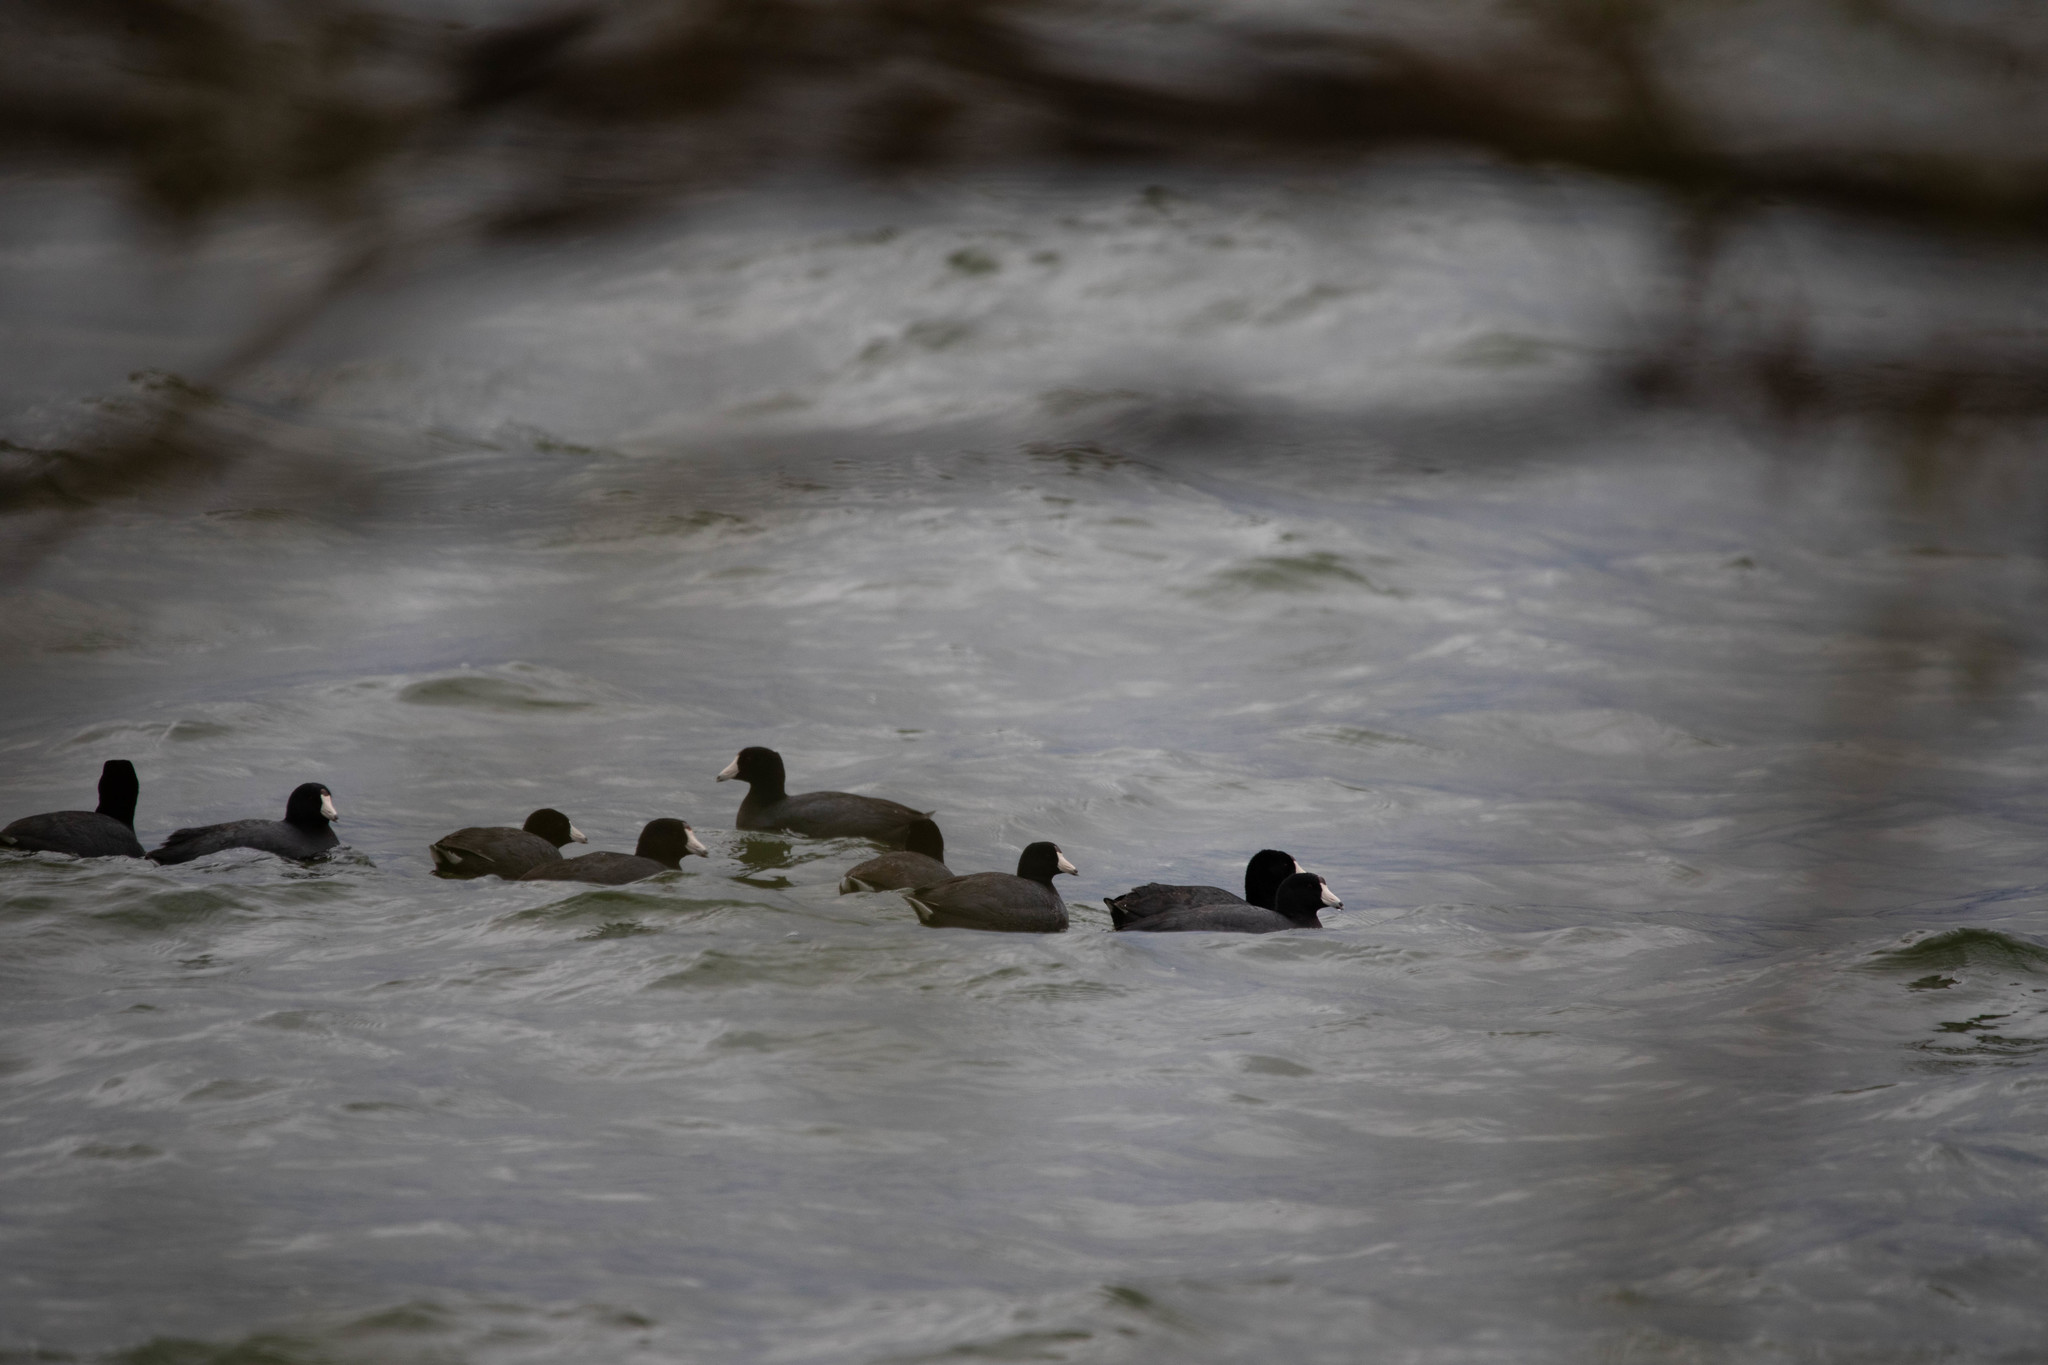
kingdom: Animalia
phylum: Chordata
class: Aves
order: Gruiformes
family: Rallidae
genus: Fulica
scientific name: Fulica americana
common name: American coot
